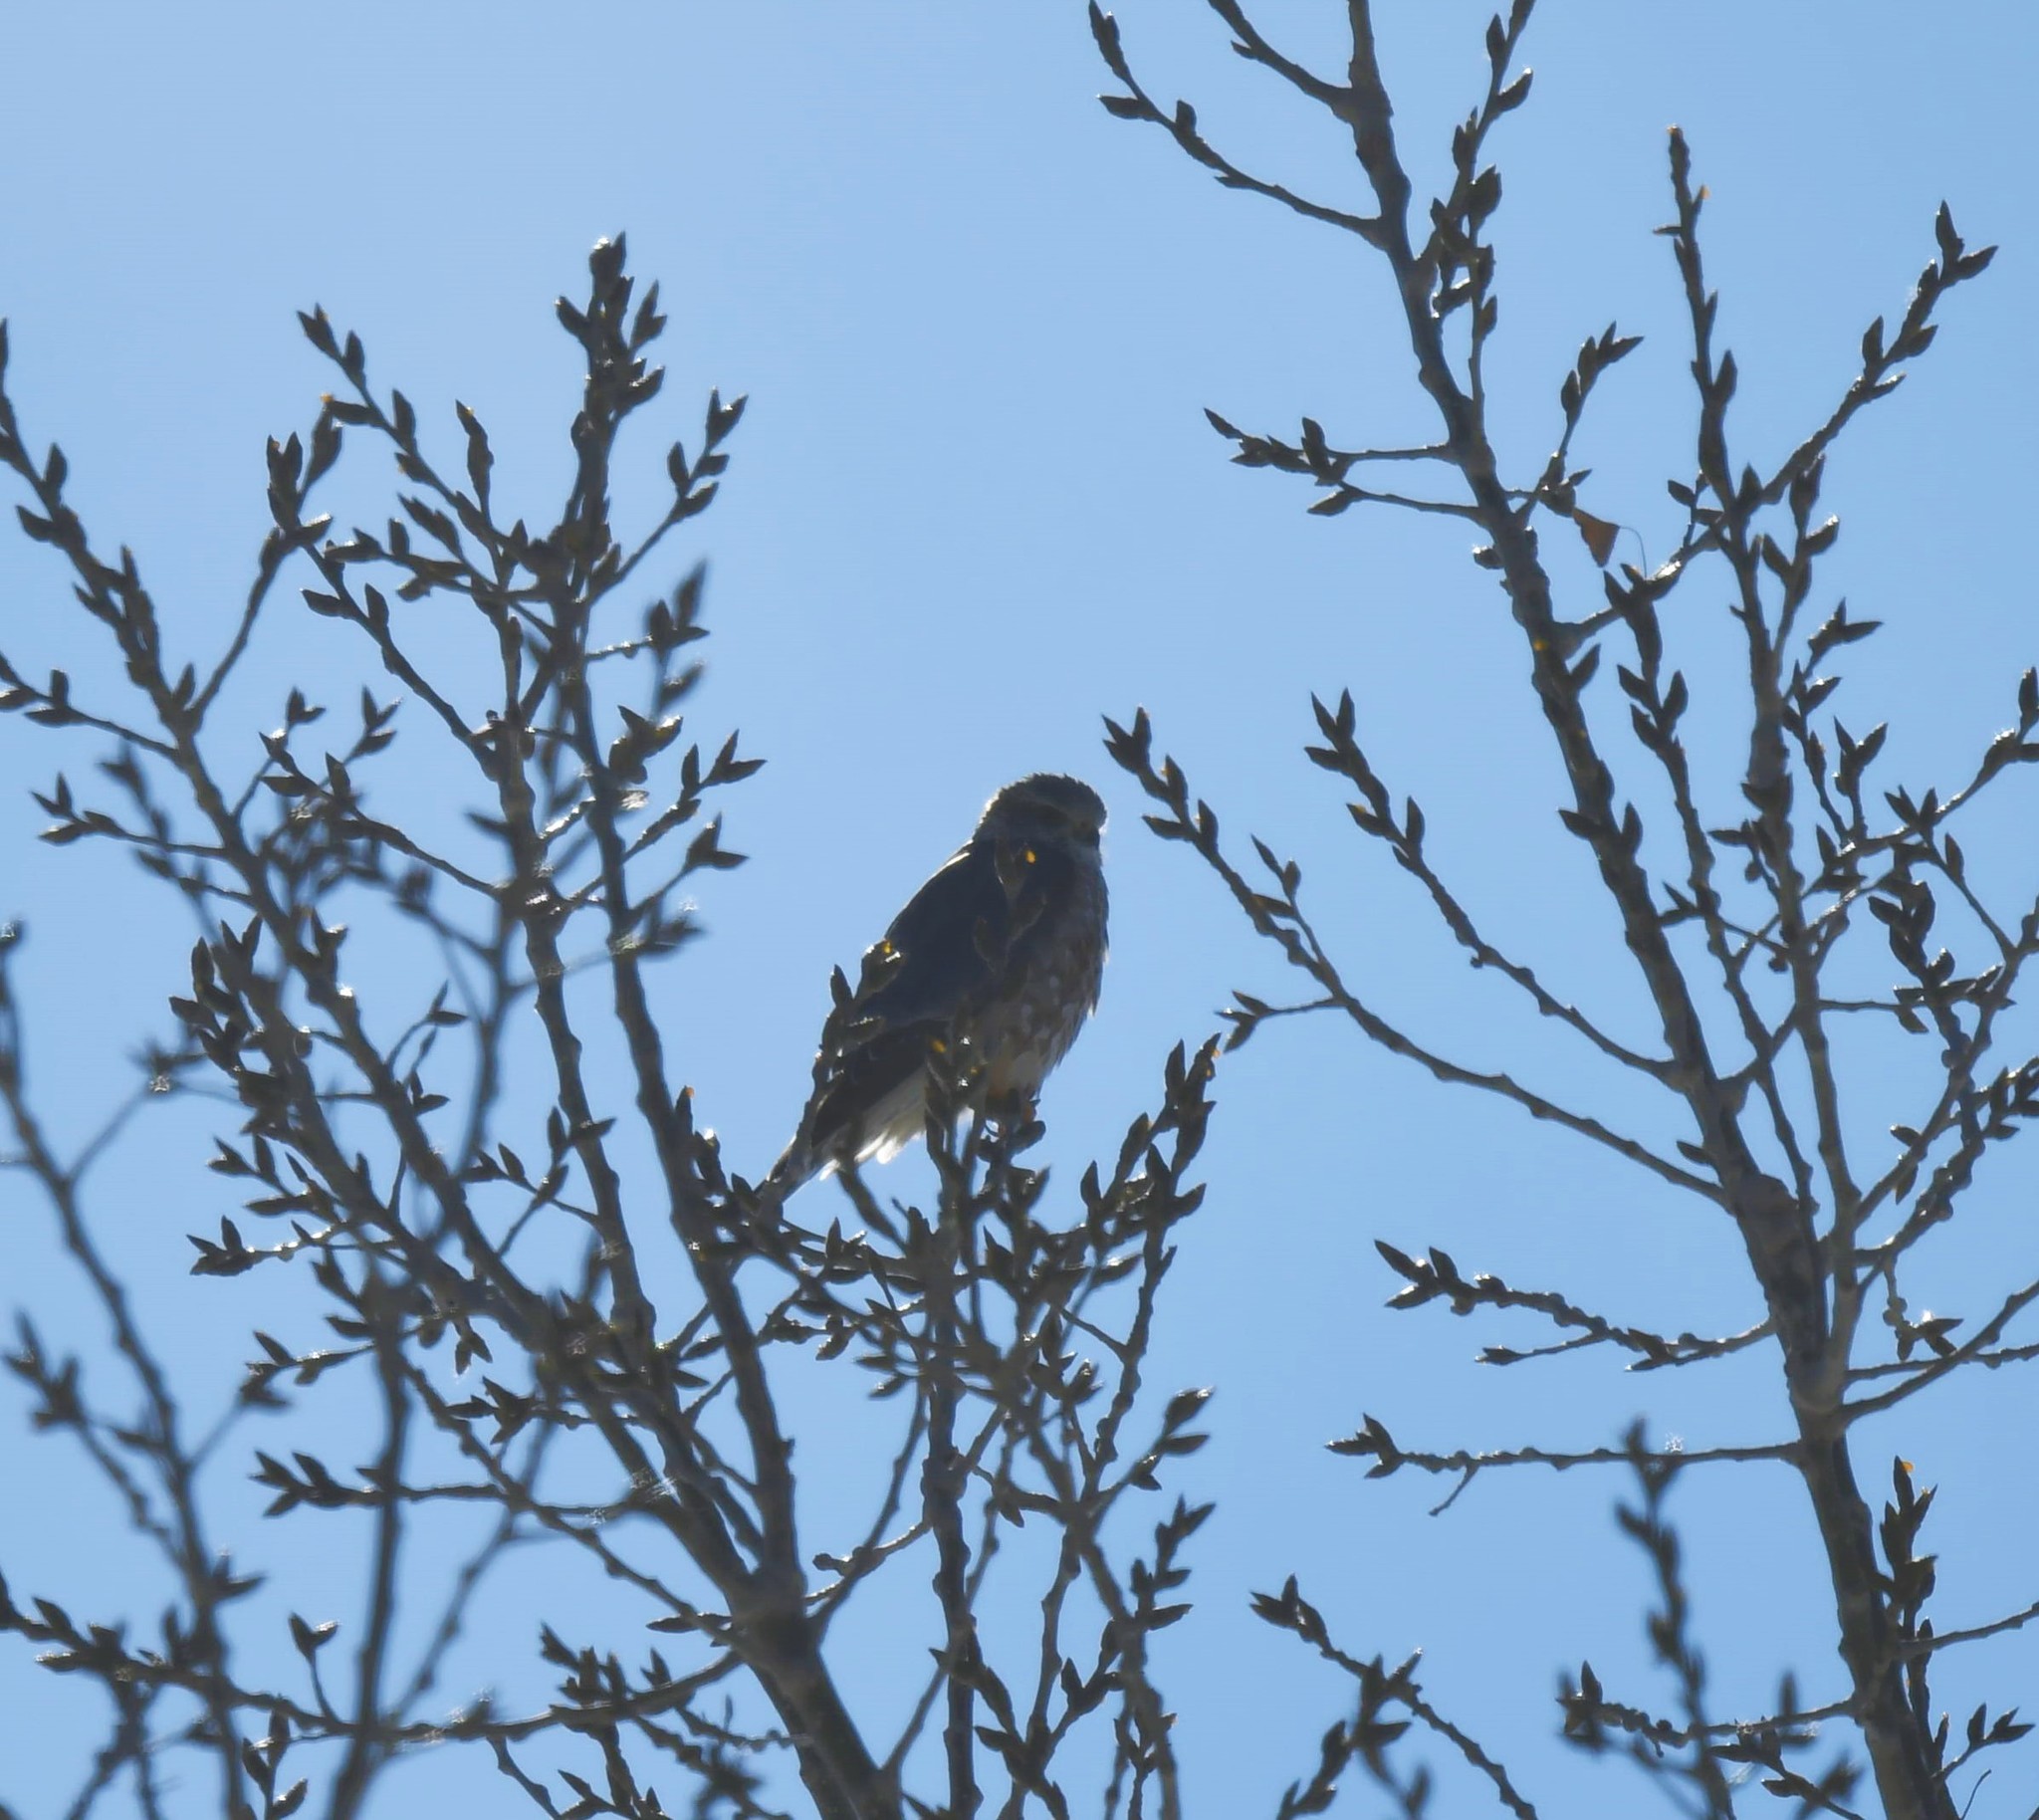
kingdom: Animalia
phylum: Chordata
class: Aves
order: Falconiformes
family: Falconidae
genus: Falco
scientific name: Falco columbarius
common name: Merlin
